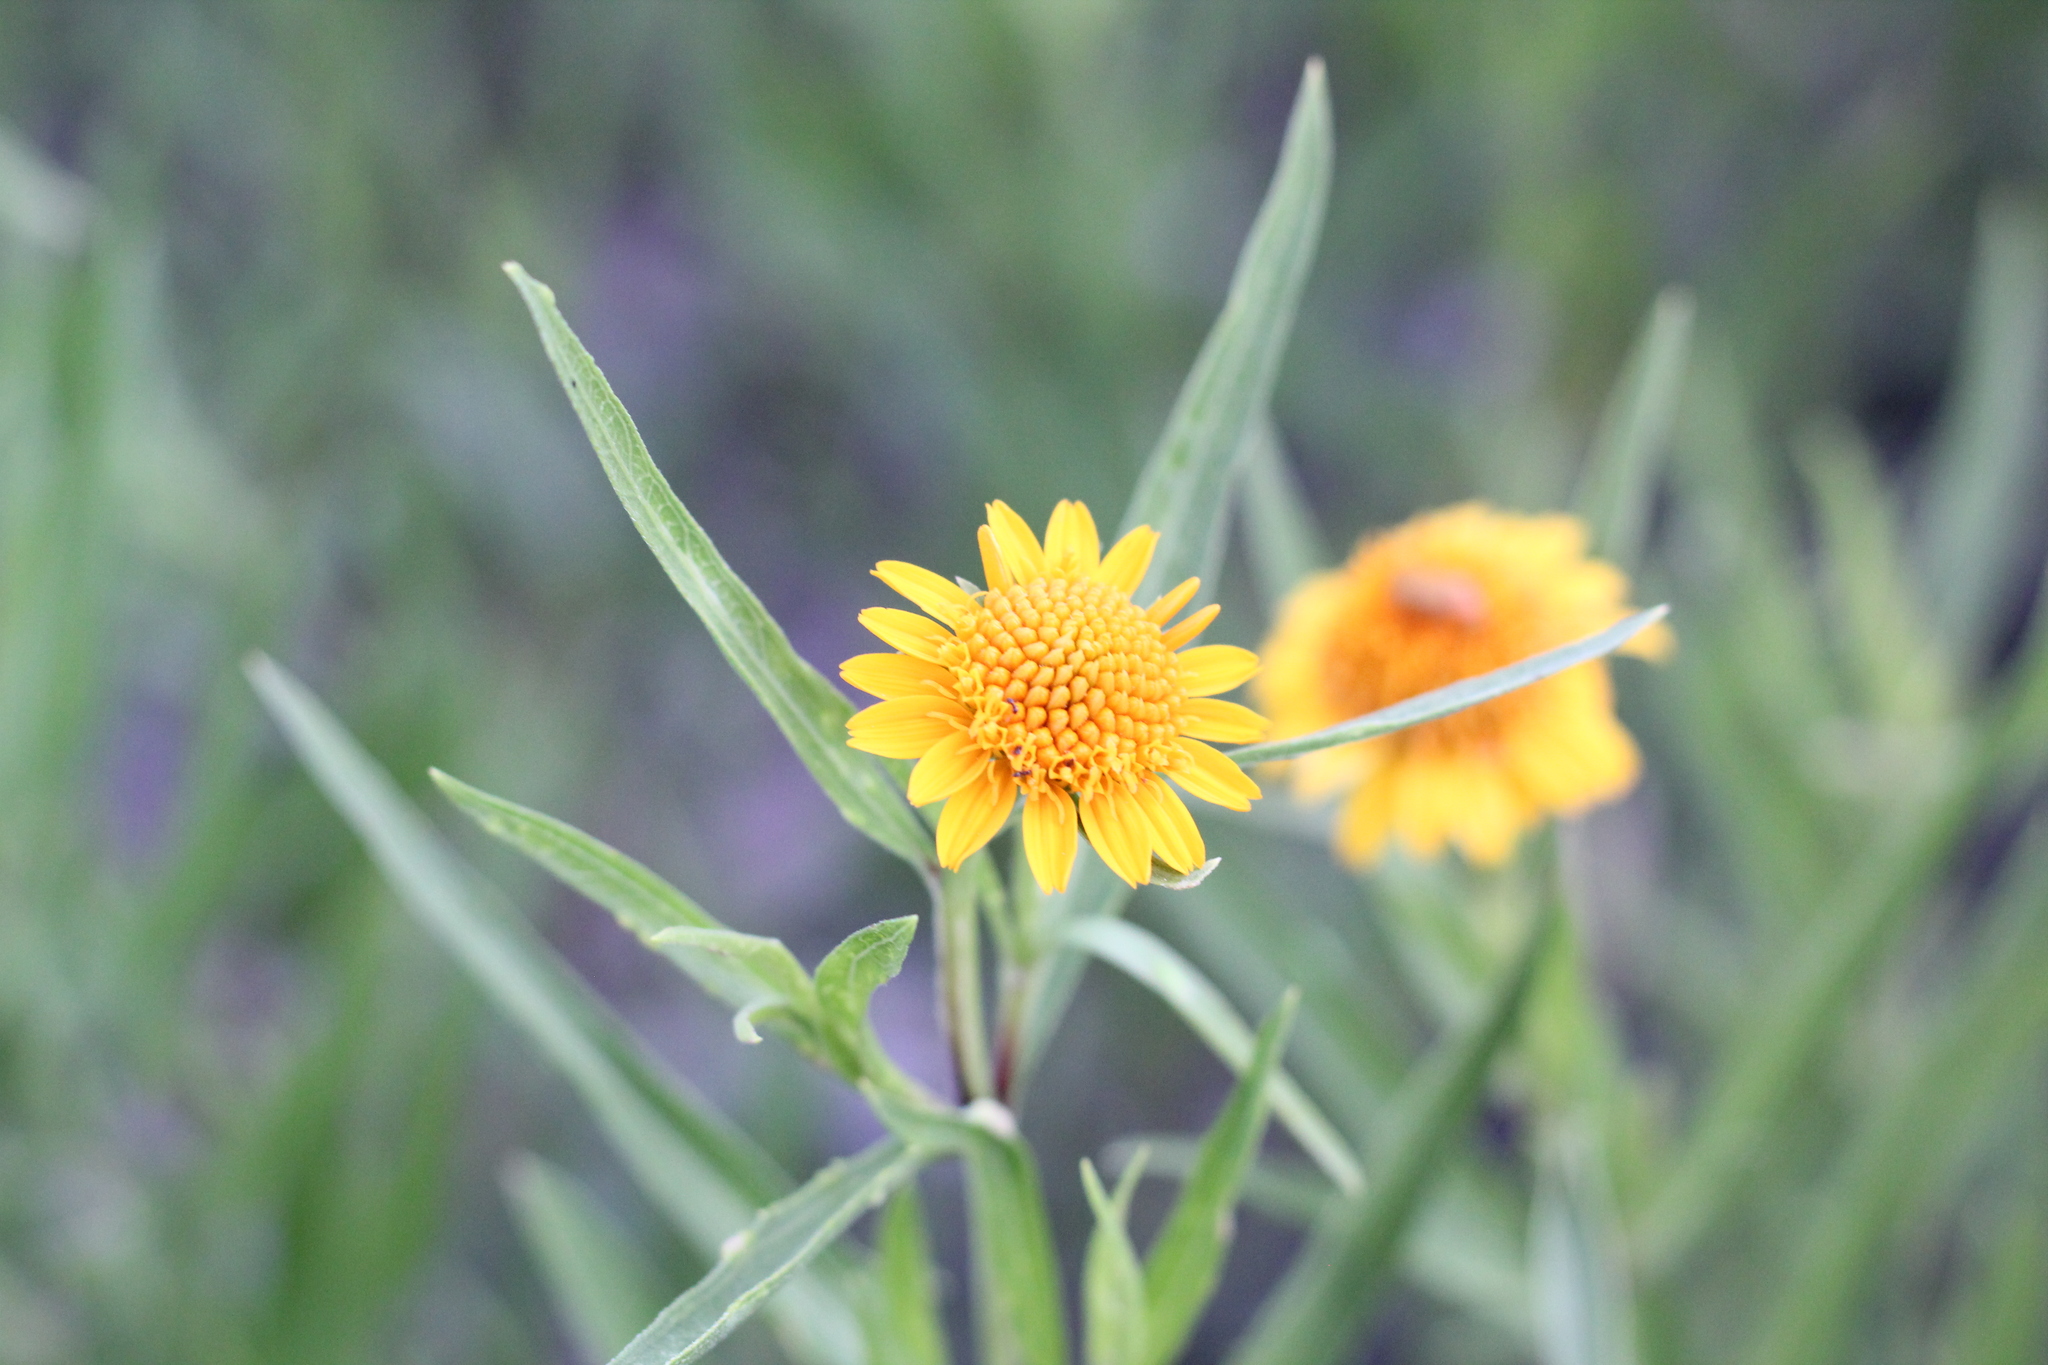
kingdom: Plantae
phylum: Tracheophyta
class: Magnoliopsida
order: Asterales
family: Asteraceae
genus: Pascalia
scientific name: Pascalia glauca
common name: Beach creeping oxeye
